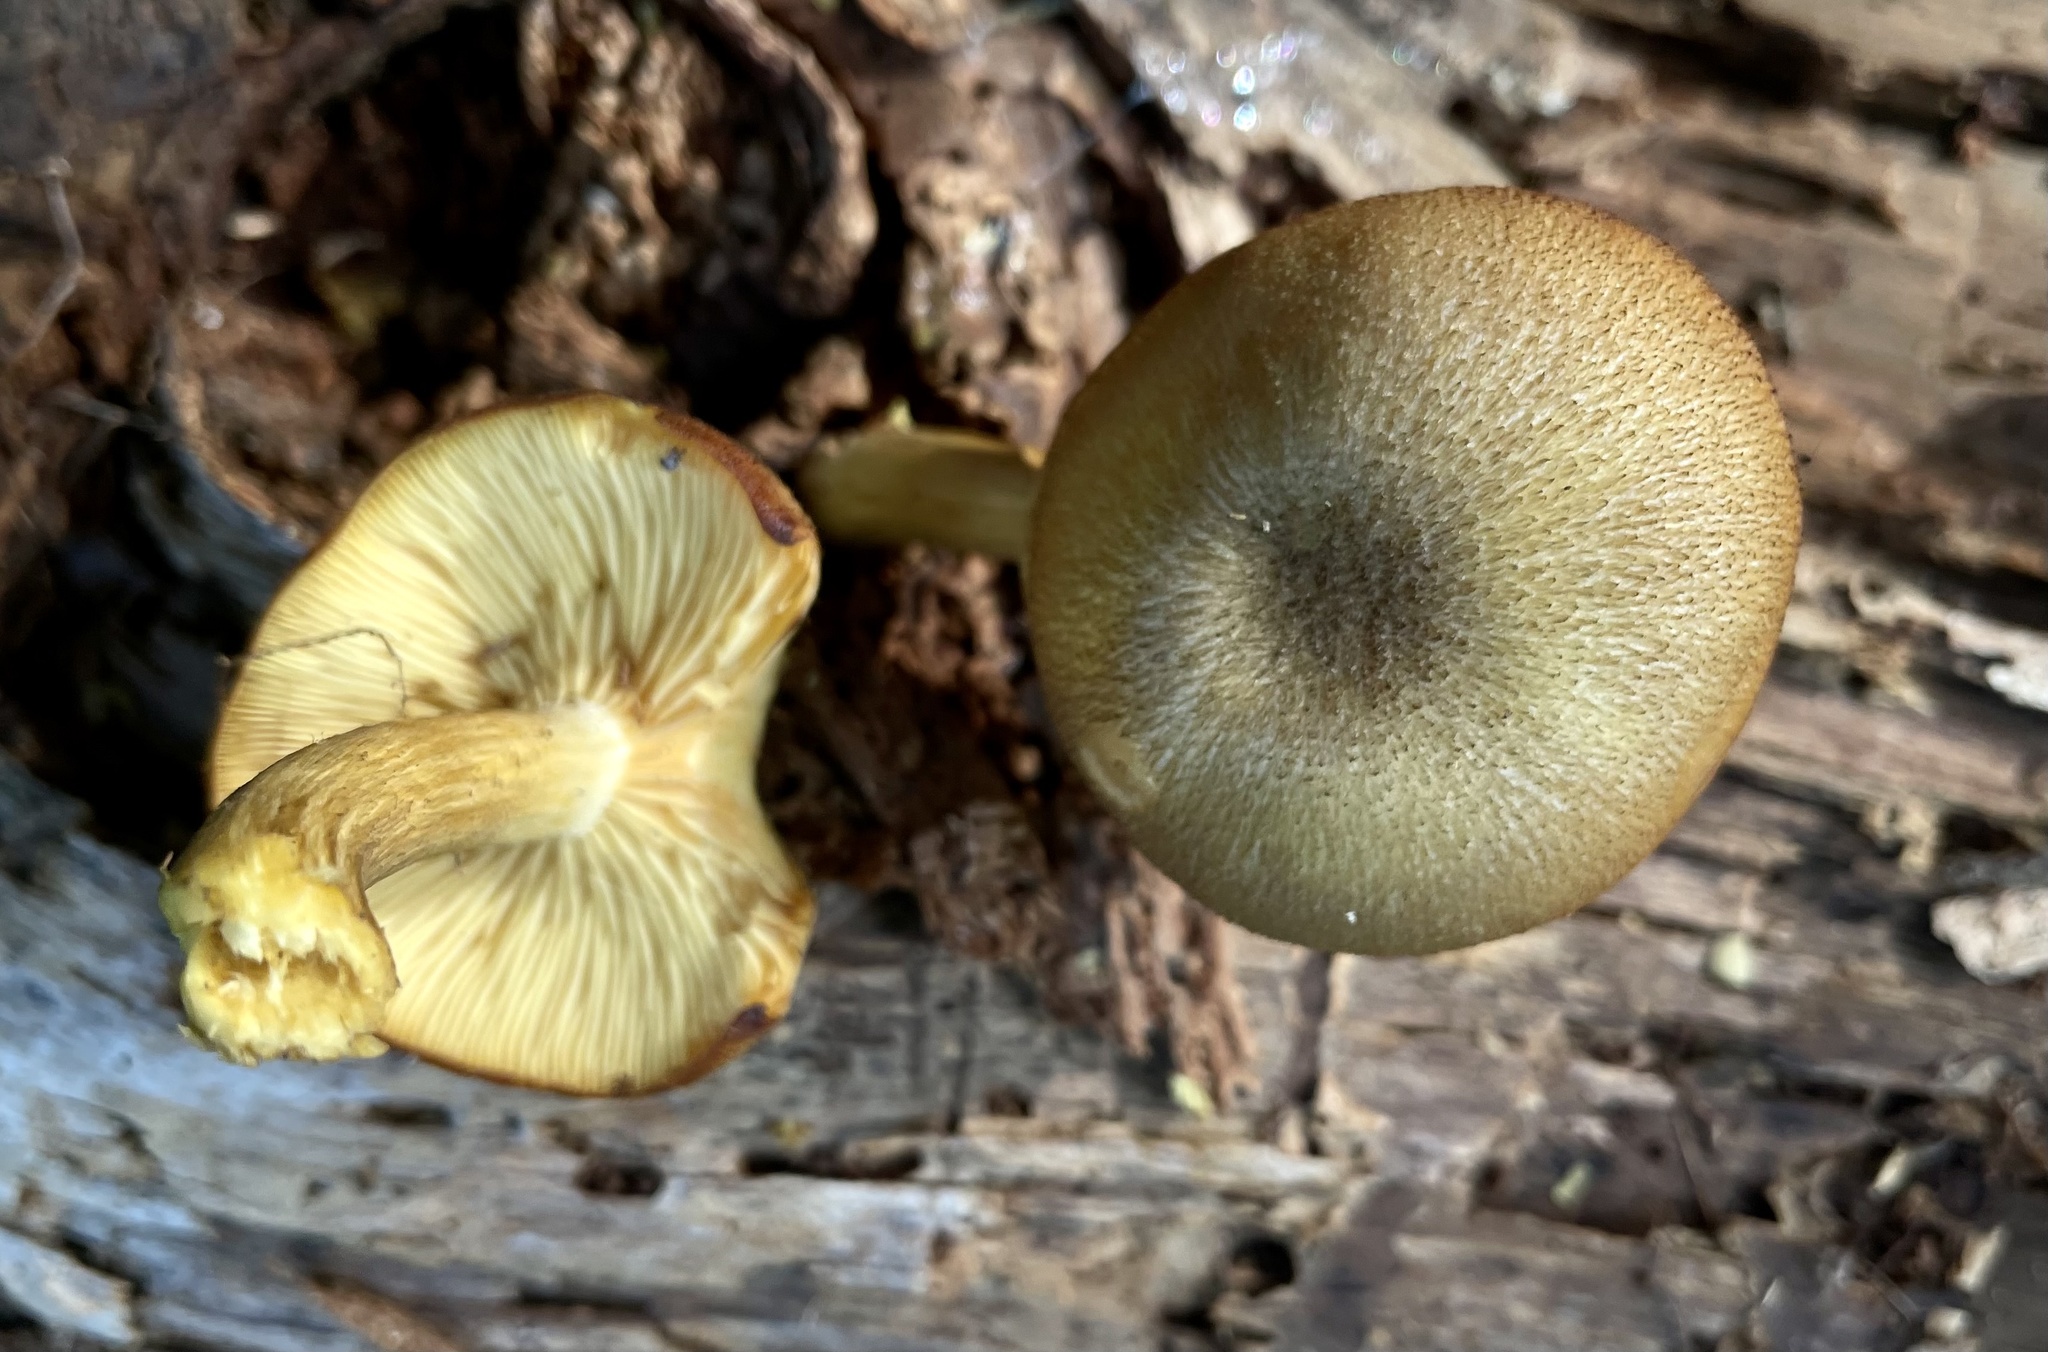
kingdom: Fungi
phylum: Basidiomycota
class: Agaricomycetes
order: Agaricales
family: Tricholomataceae
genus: Tricholomopsis
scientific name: Tricholomopsis decora
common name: Prunes and custard
